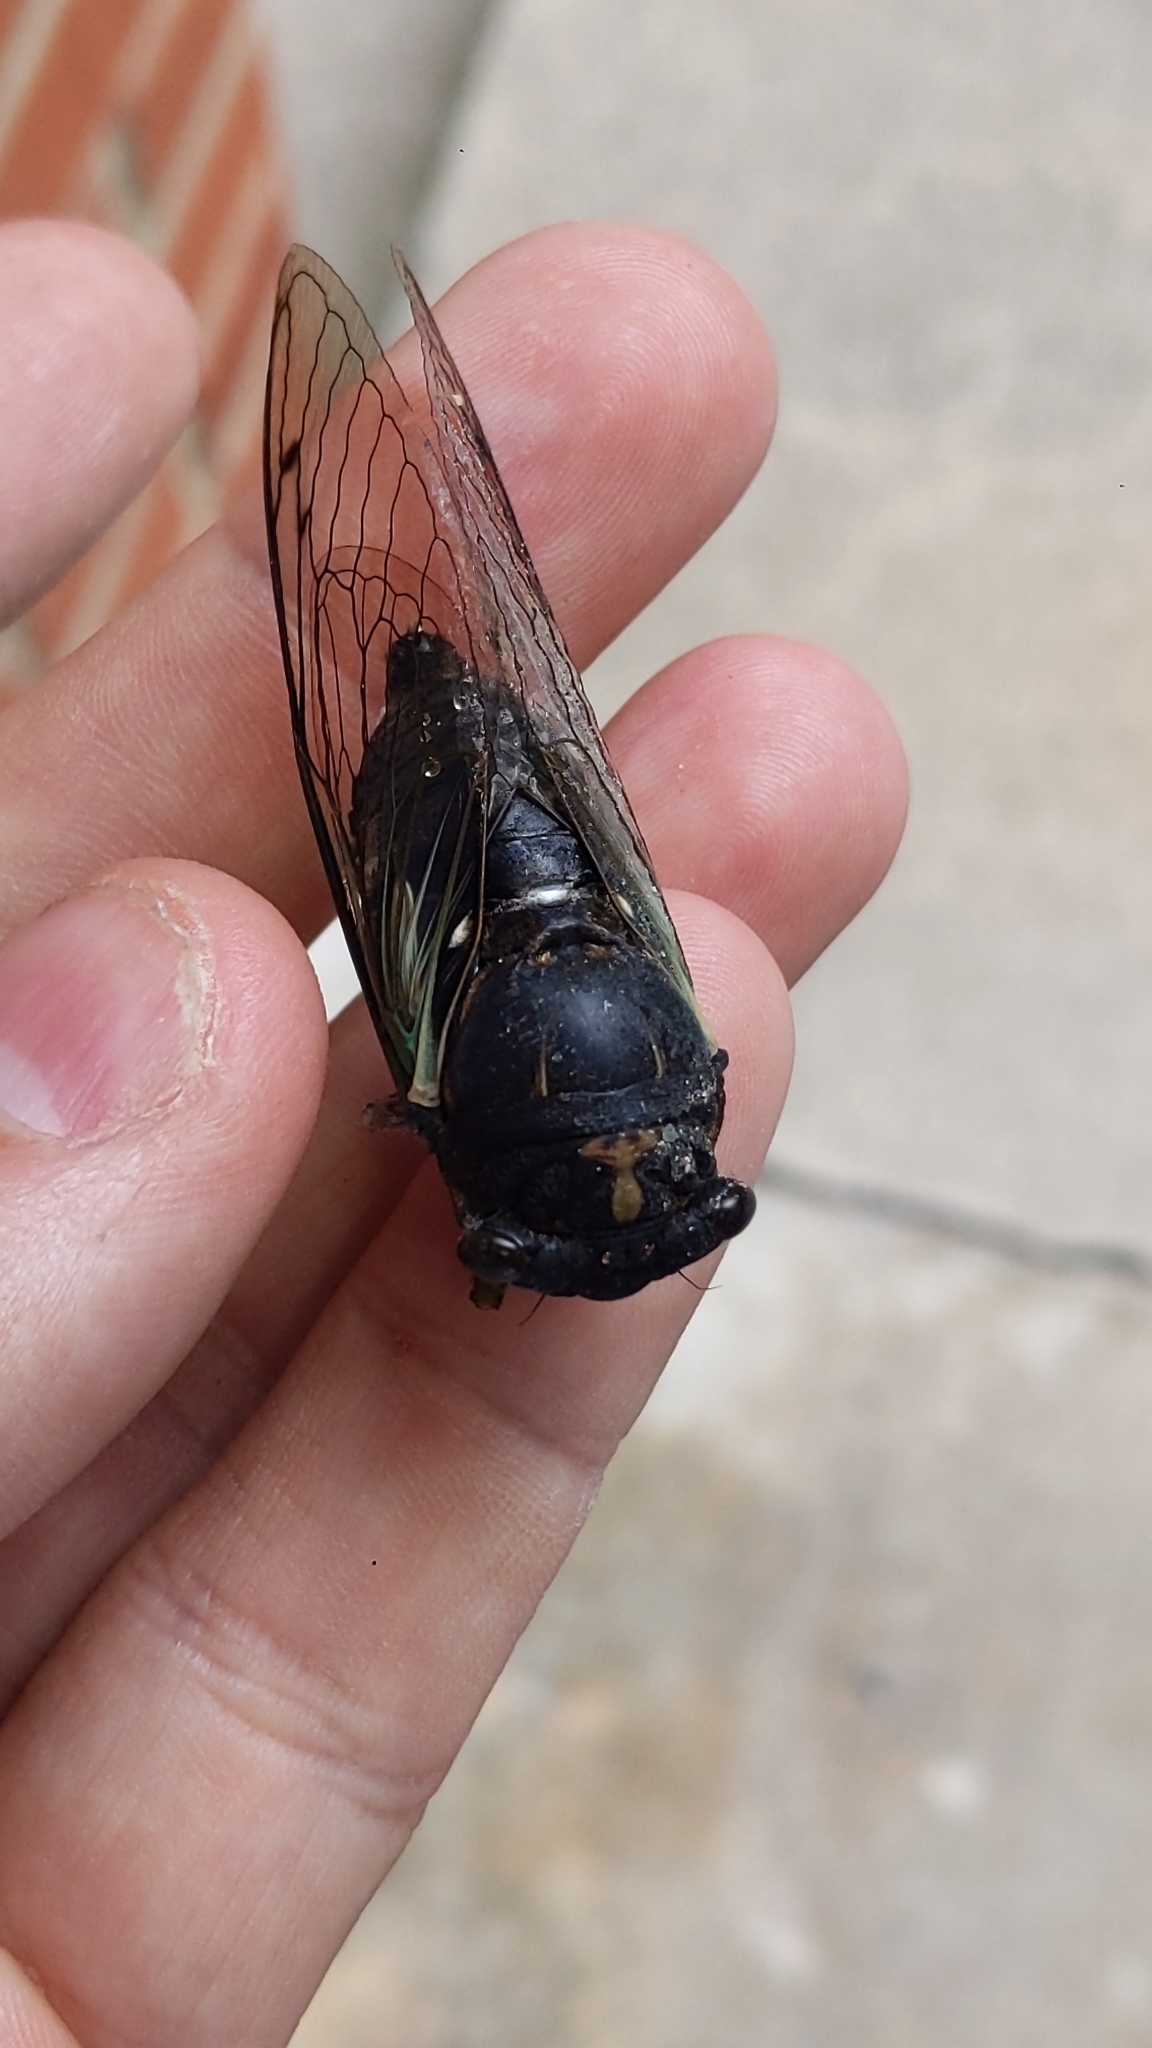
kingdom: Animalia
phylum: Arthropoda
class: Insecta
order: Hemiptera
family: Cicadidae
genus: Neotibicen
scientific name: Neotibicen lyricen
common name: Lyric cicada
